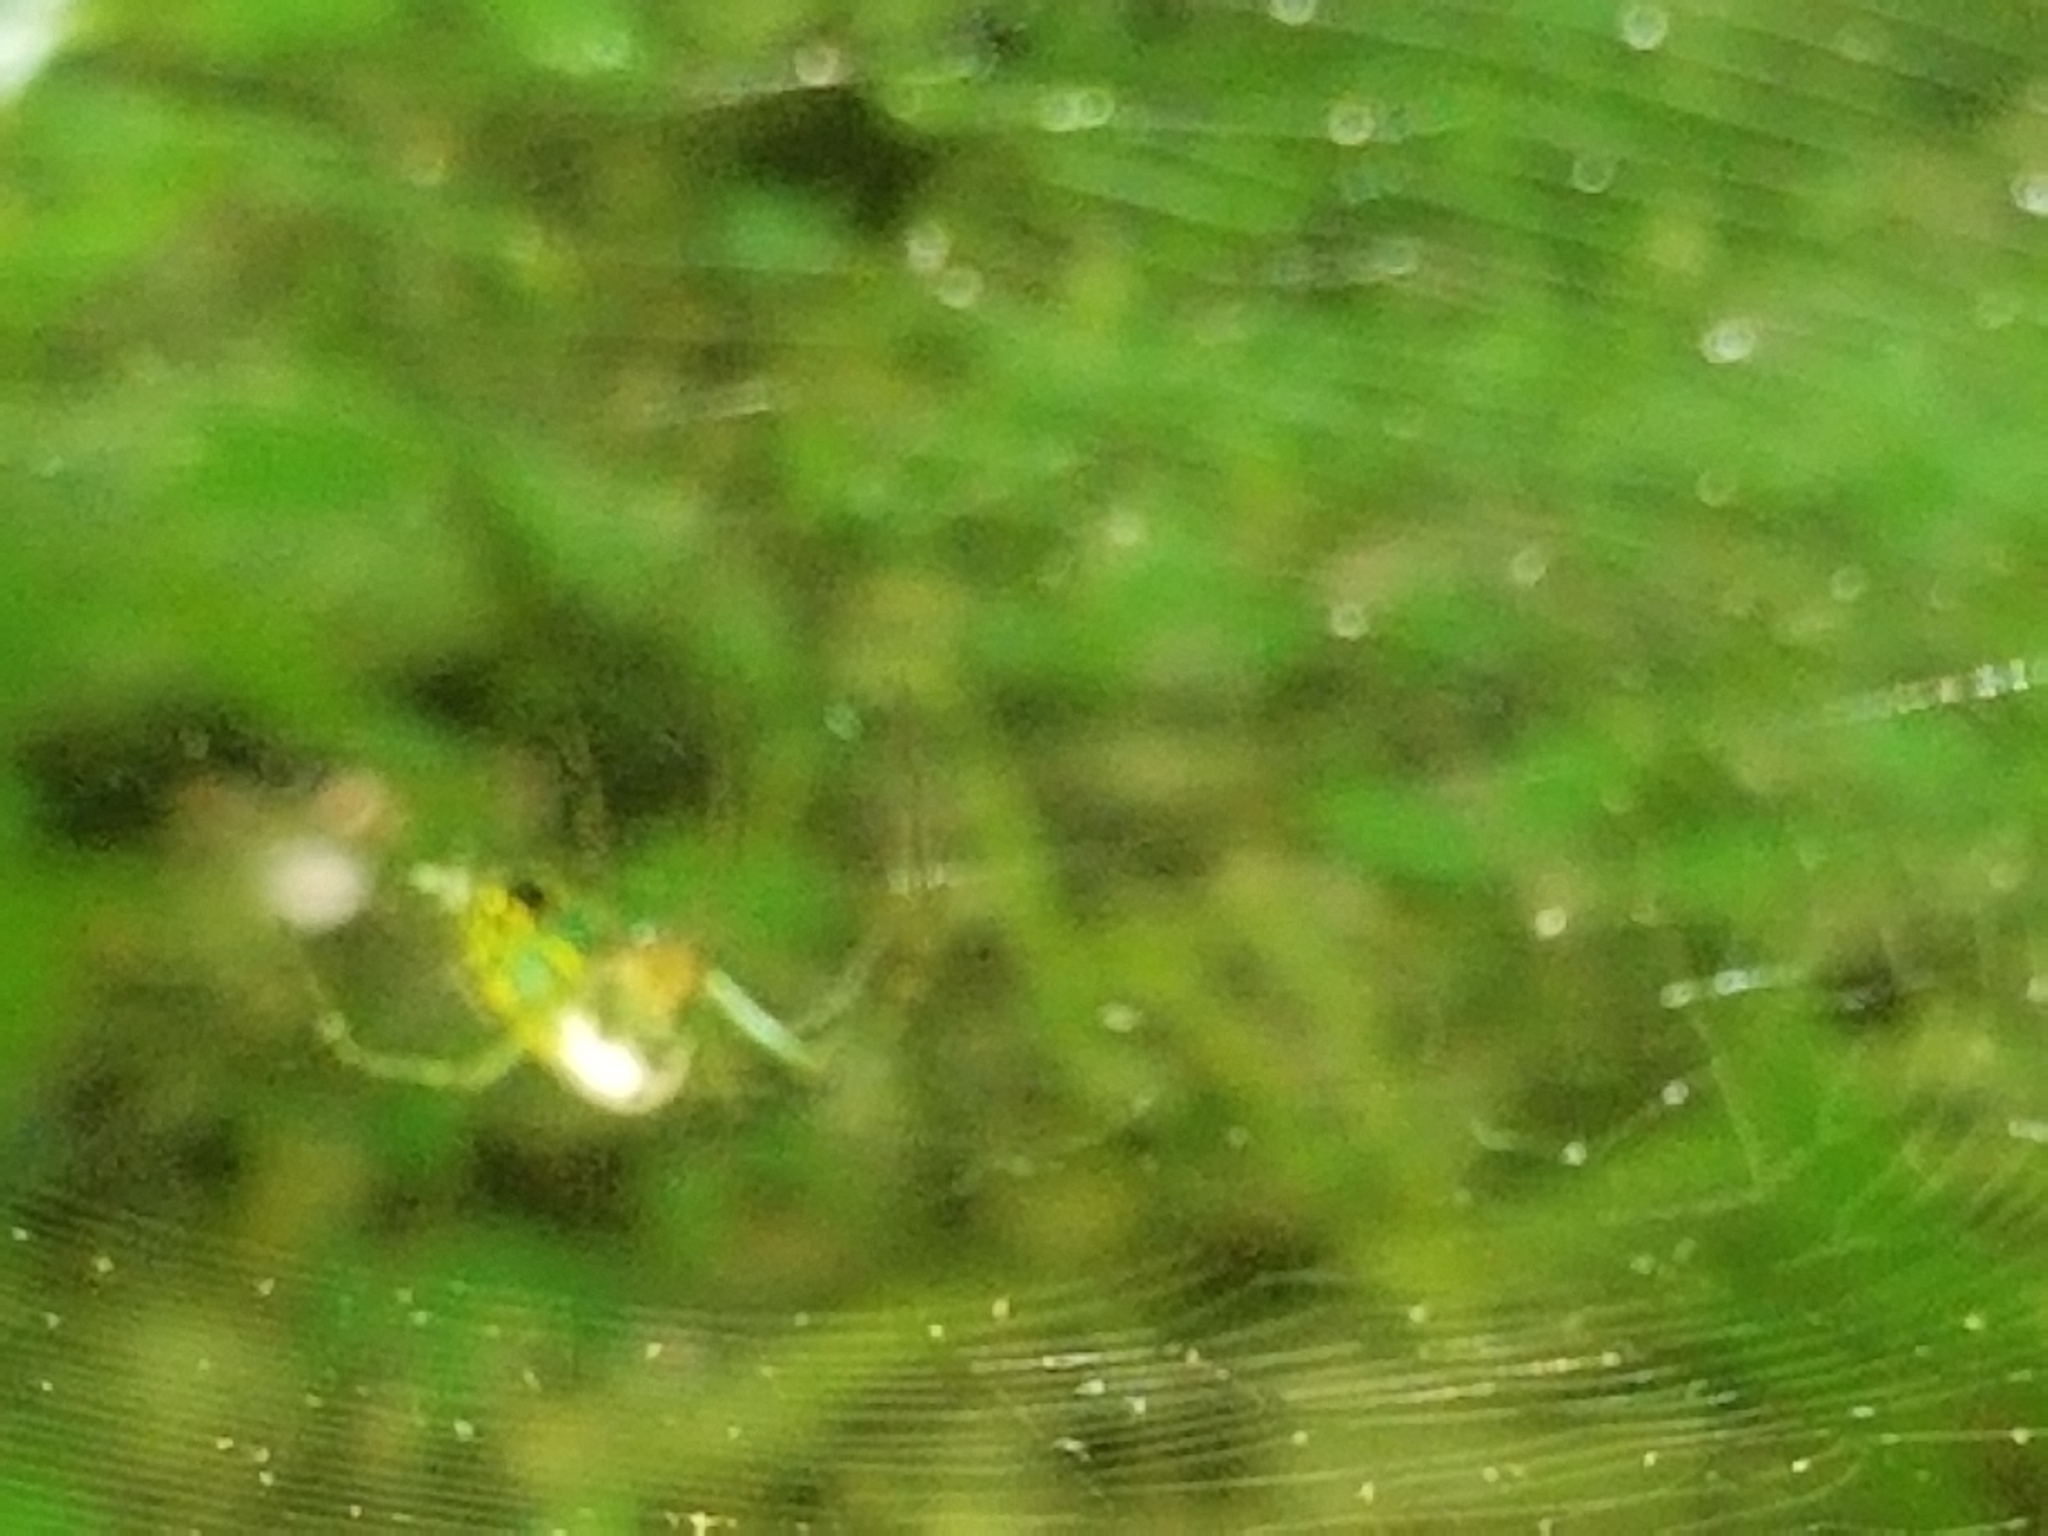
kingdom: Animalia
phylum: Arthropoda
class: Arachnida
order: Araneae
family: Tetragnathidae
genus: Leucauge
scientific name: Leucauge venusta
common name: Longjawed orb weavers
